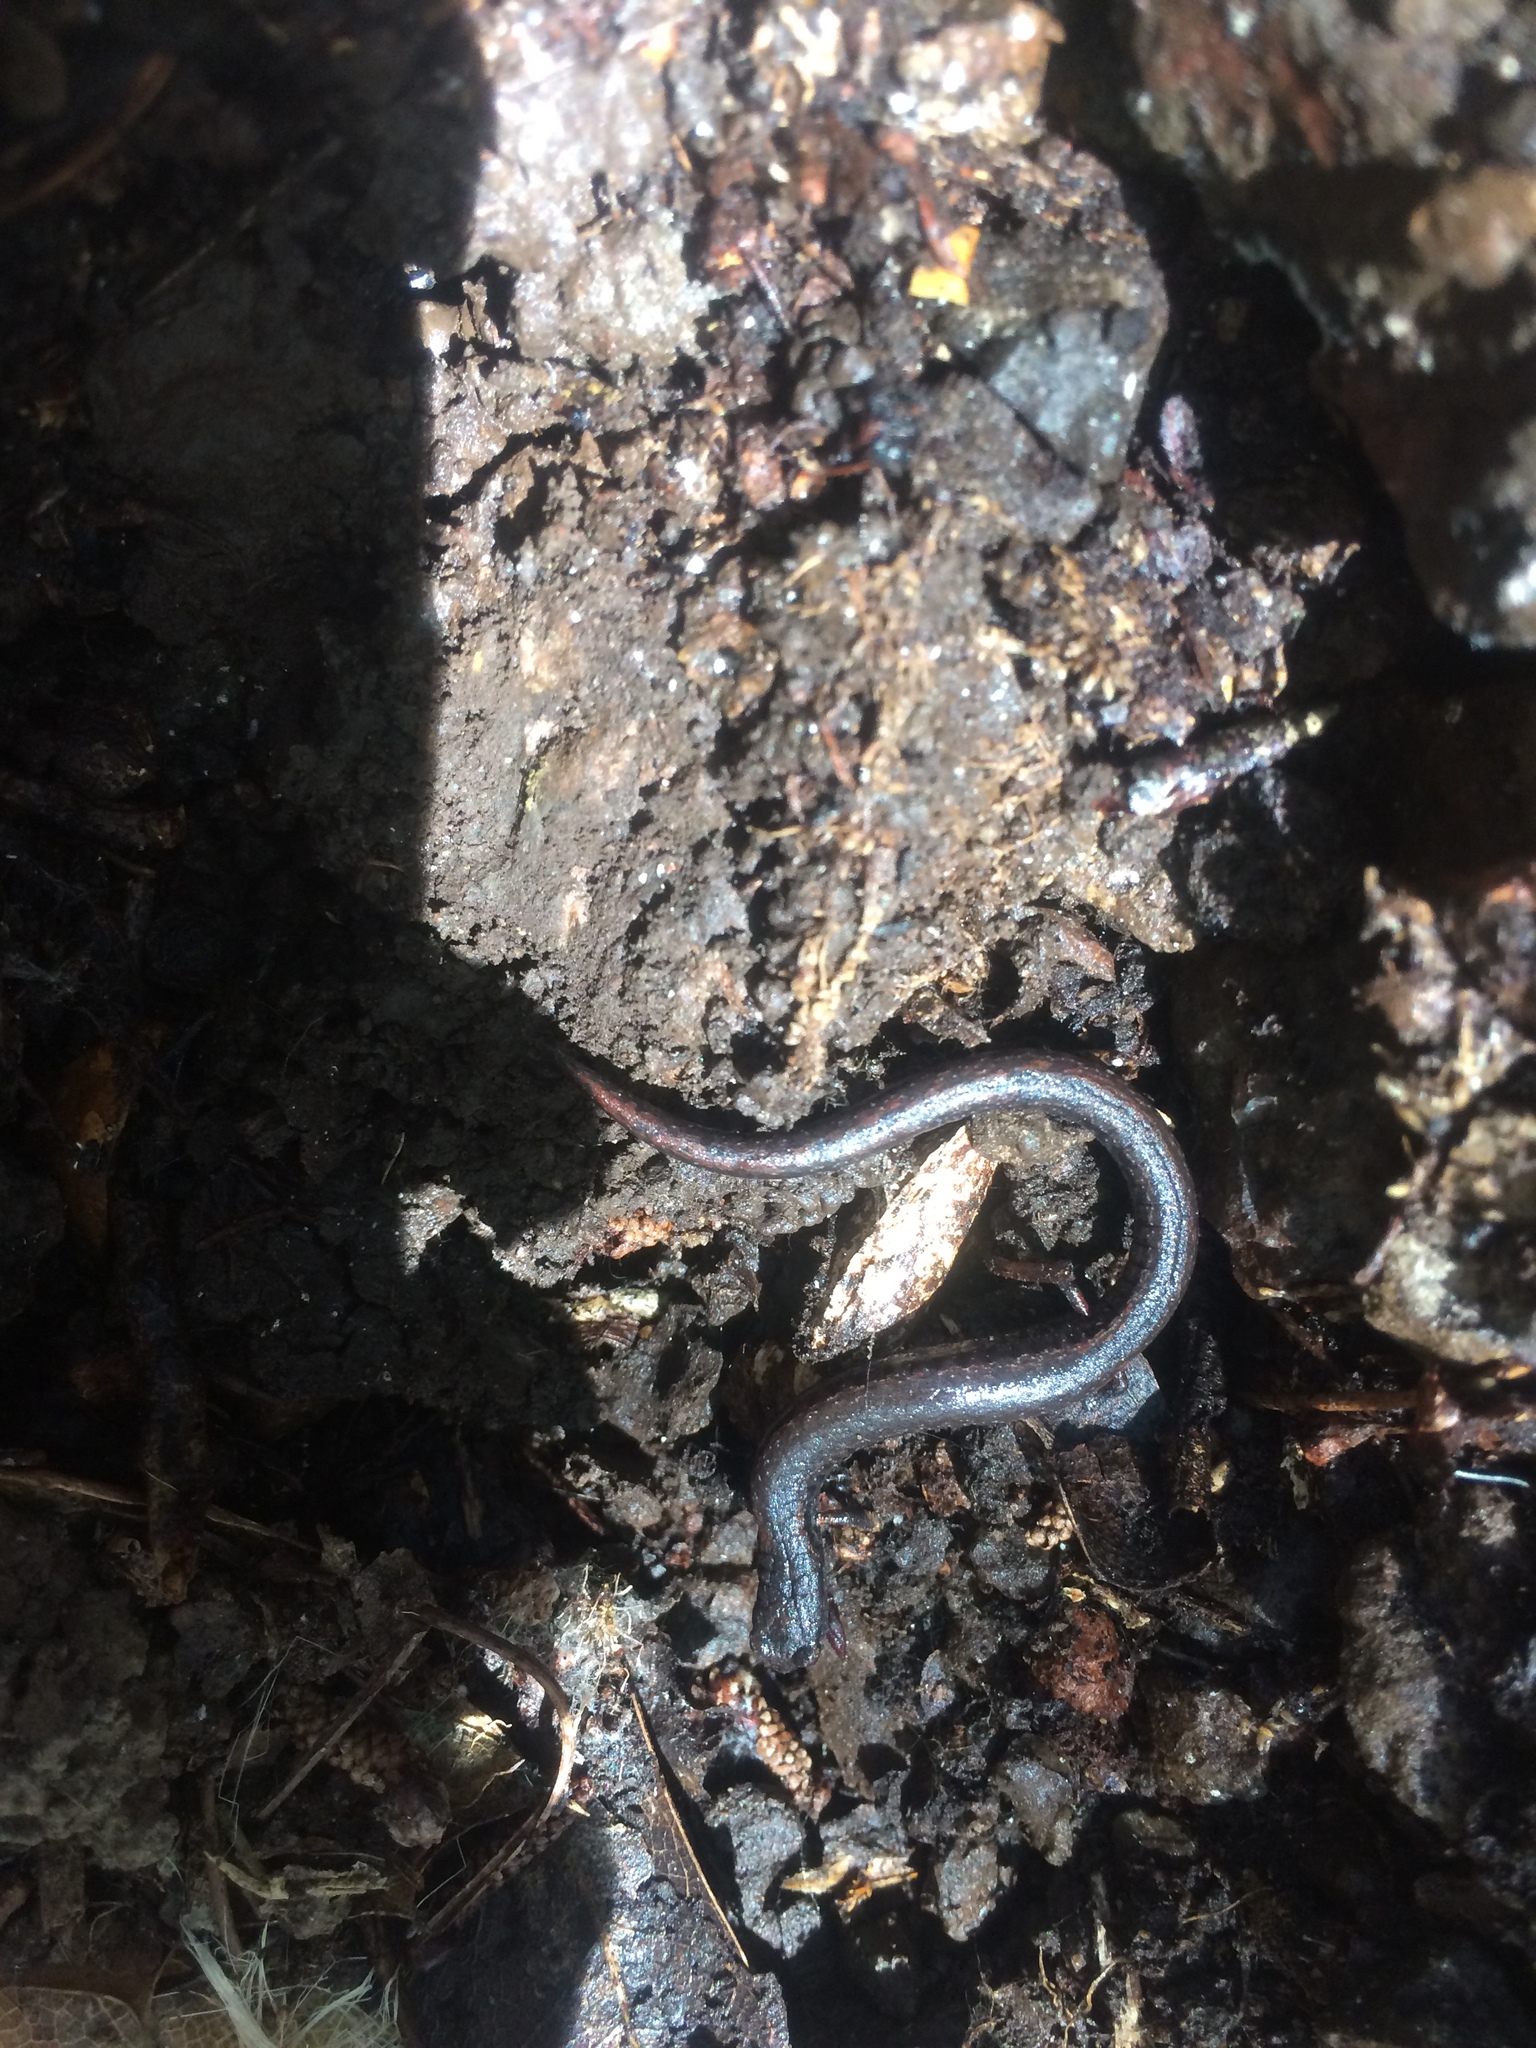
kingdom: Animalia
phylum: Chordata
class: Amphibia
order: Caudata
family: Plethodontidae
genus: Batrachoseps
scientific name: Batrachoseps attenuatus
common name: California slender salamander
